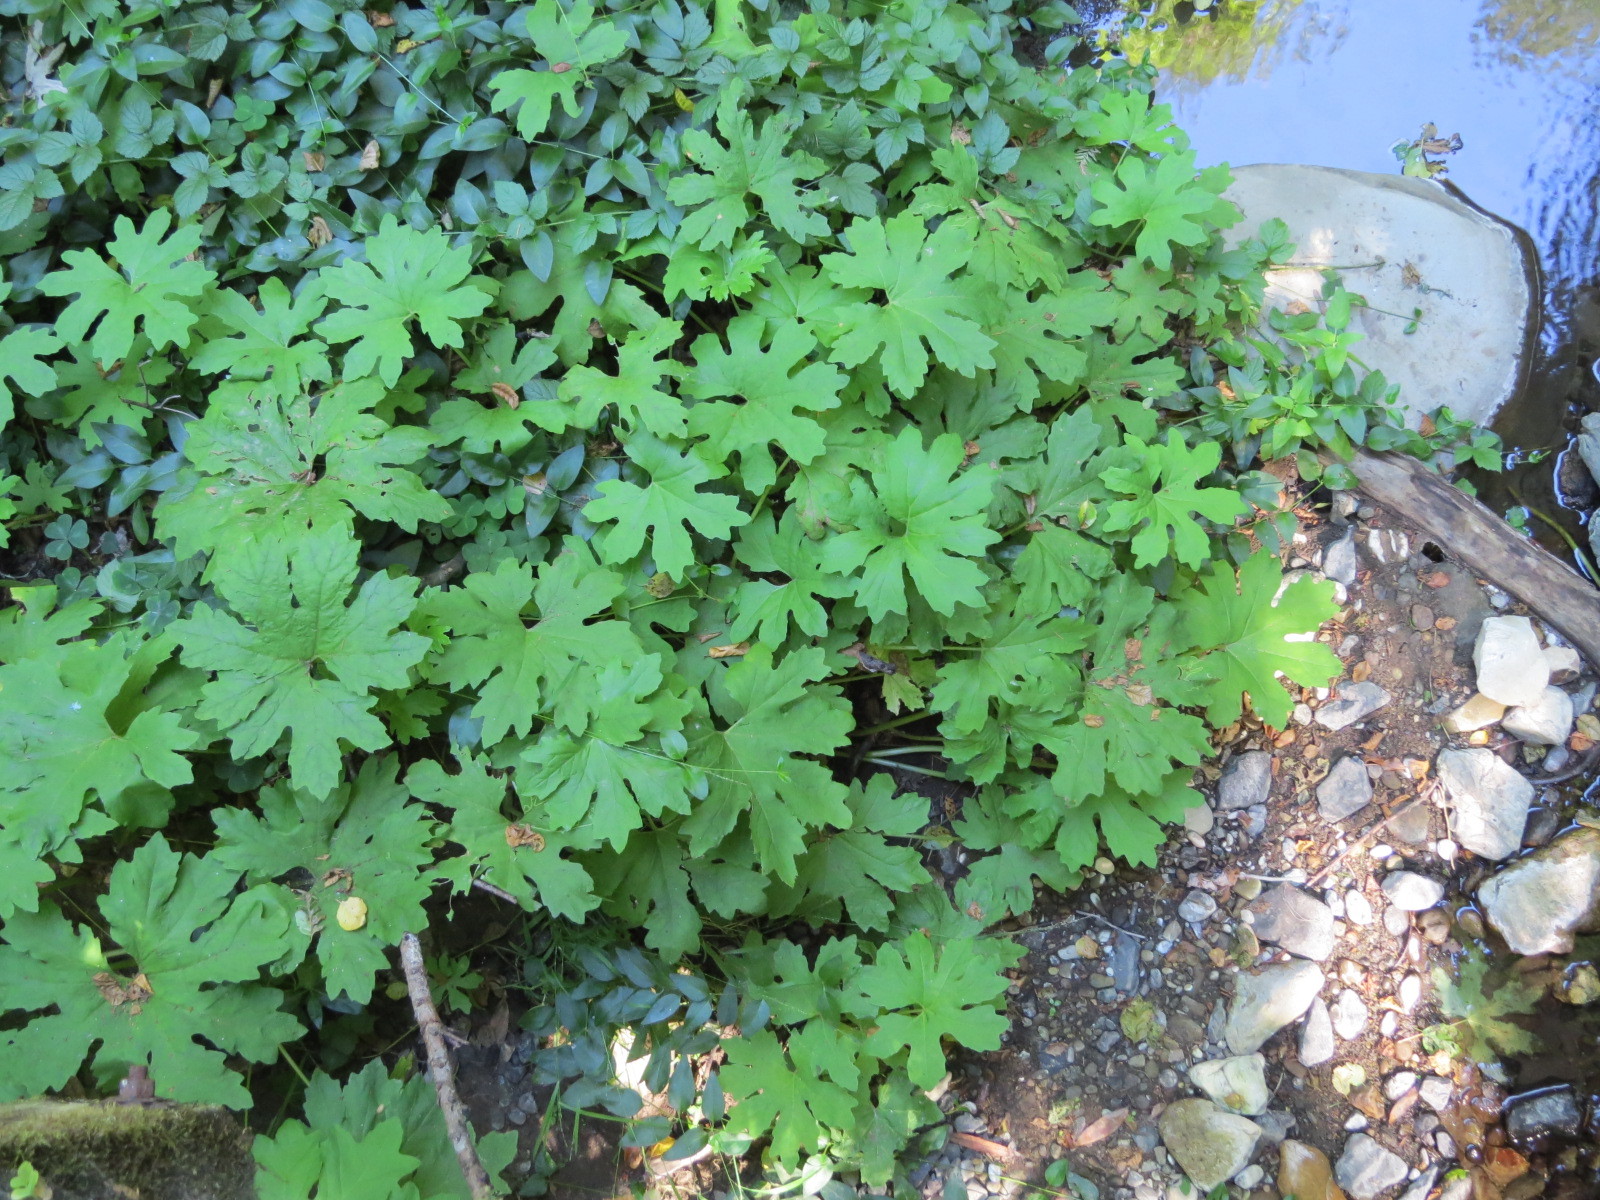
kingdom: Plantae
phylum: Tracheophyta
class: Magnoliopsida
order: Asterales
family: Asteraceae
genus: Petasites
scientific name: Petasites frigidus
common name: Arctic butterbur
